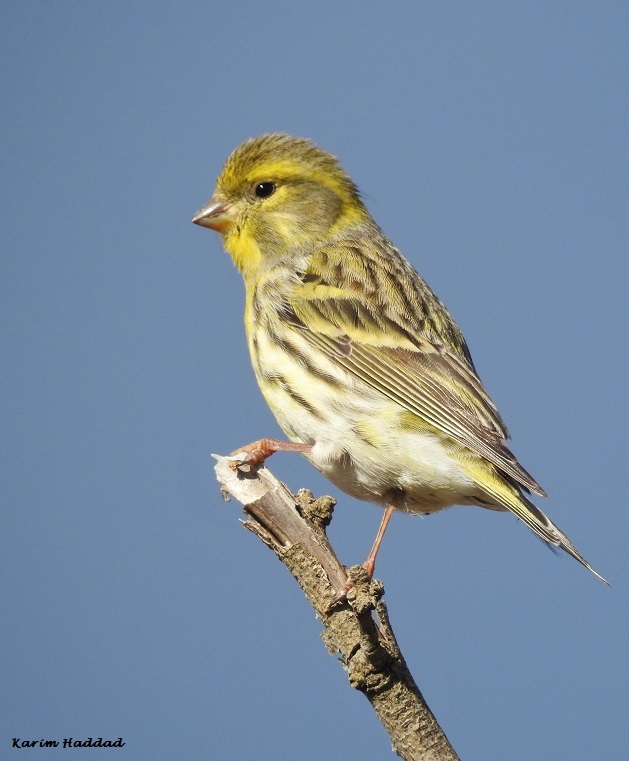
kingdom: Animalia
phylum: Chordata
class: Aves
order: Passeriformes
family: Fringillidae
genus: Serinus
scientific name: Serinus serinus
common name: European serin
